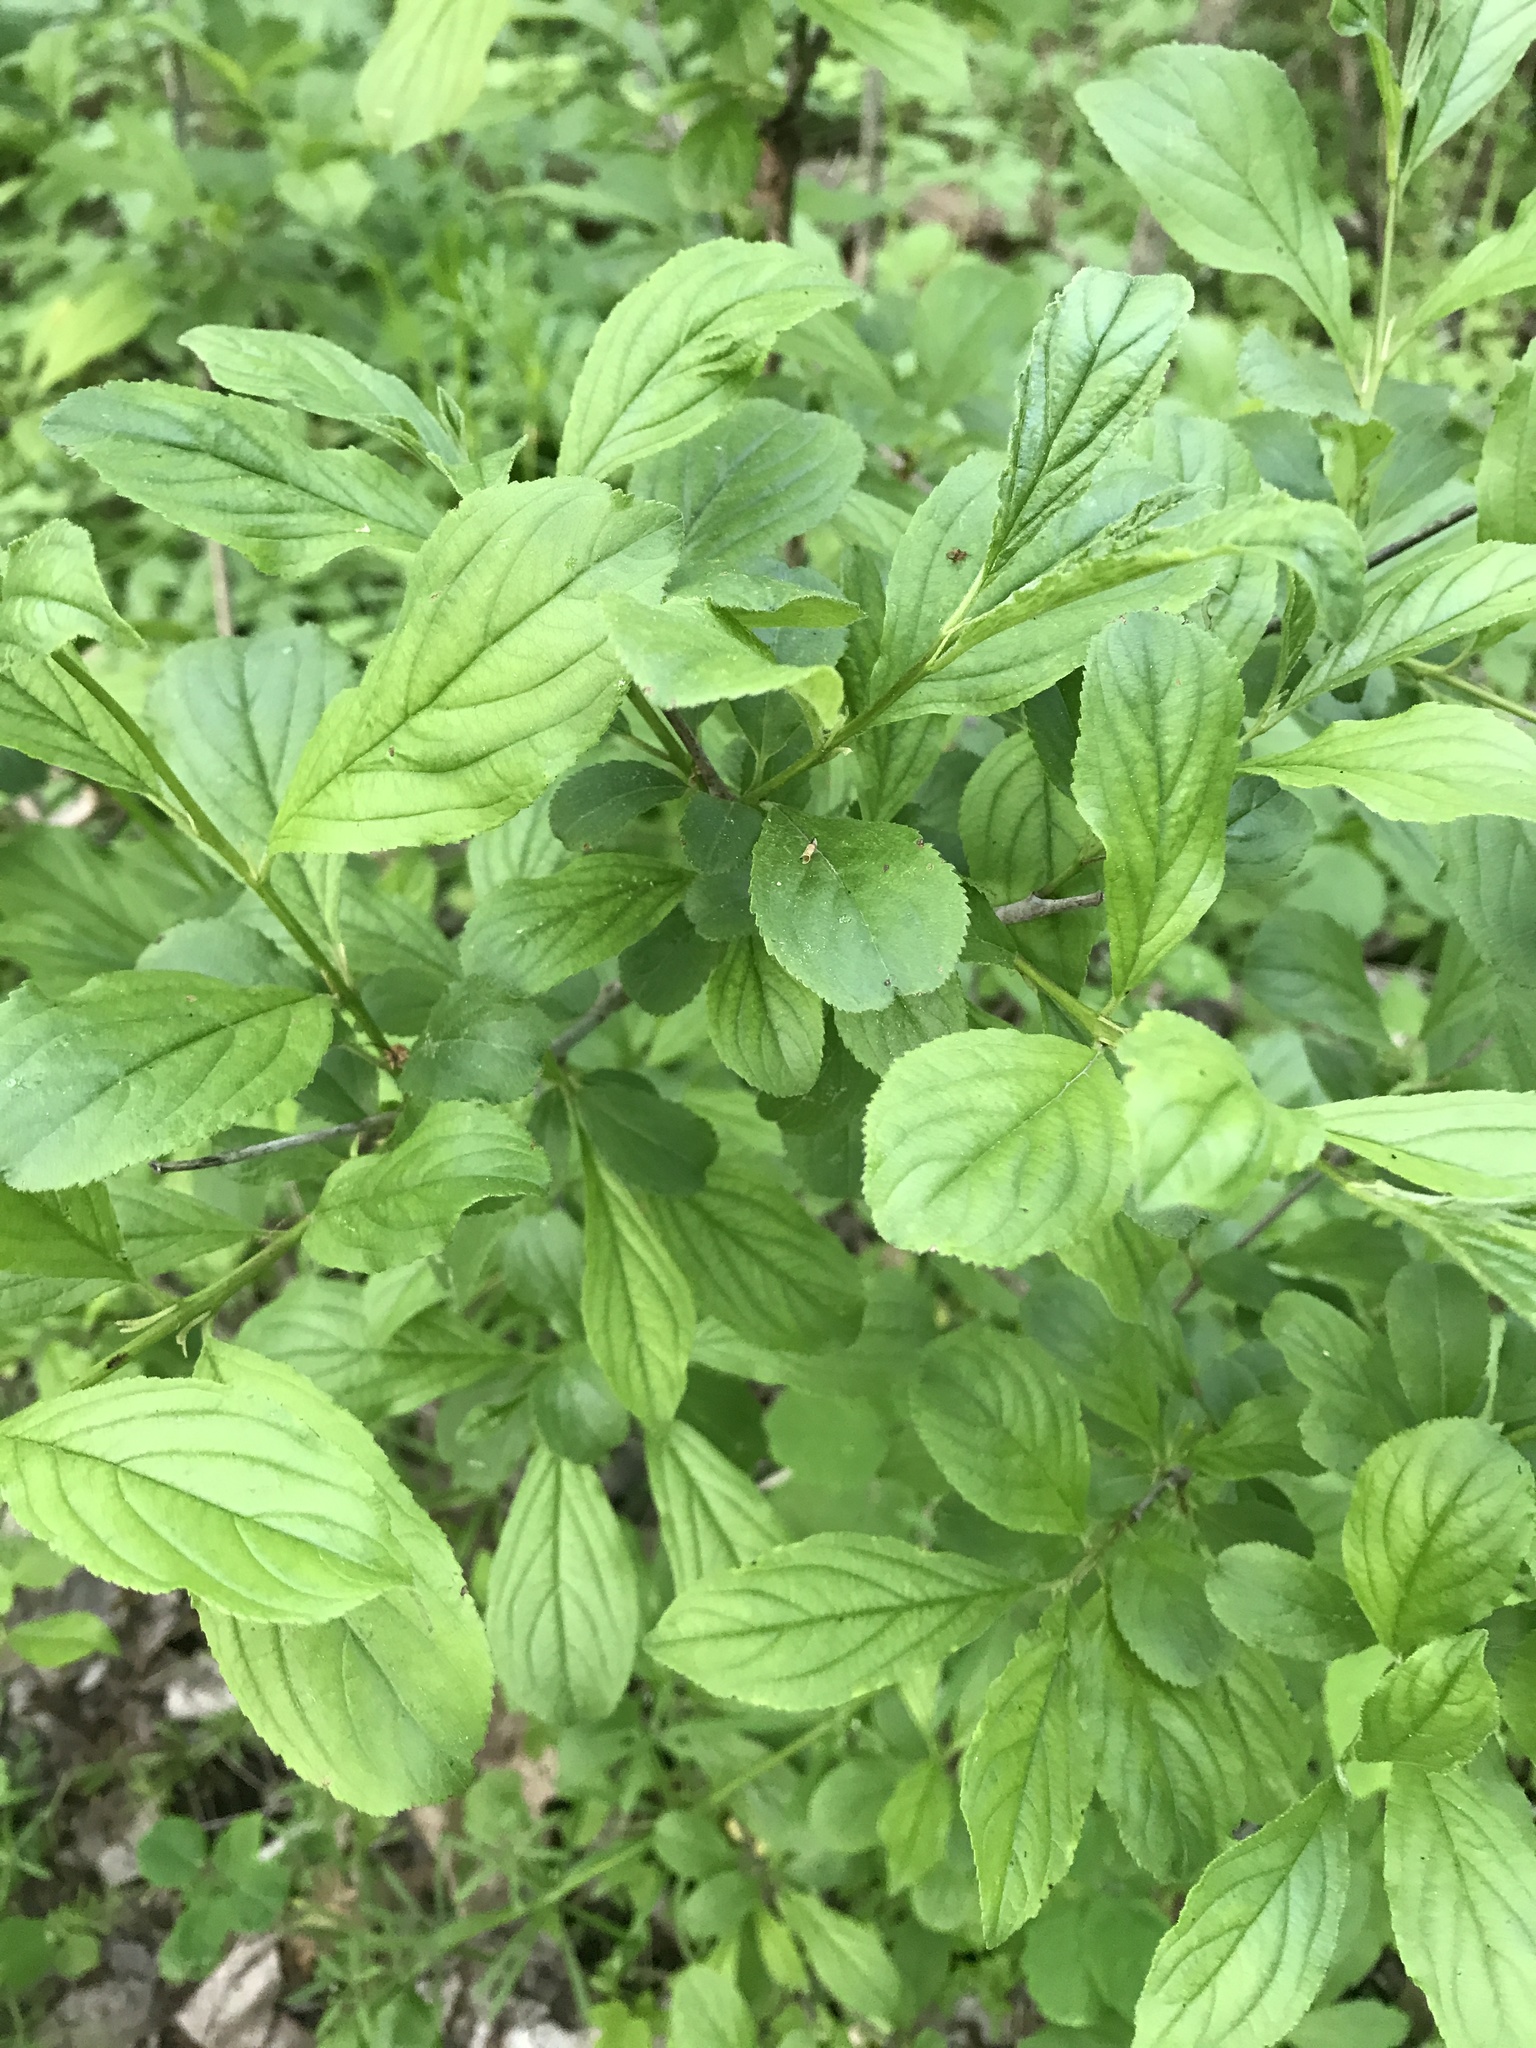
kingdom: Plantae
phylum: Tracheophyta
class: Magnoliopsida
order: Rosales
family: Rhamnaceae
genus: Rhamnus
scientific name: Rhamnus cathartica
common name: Common buckthorn
